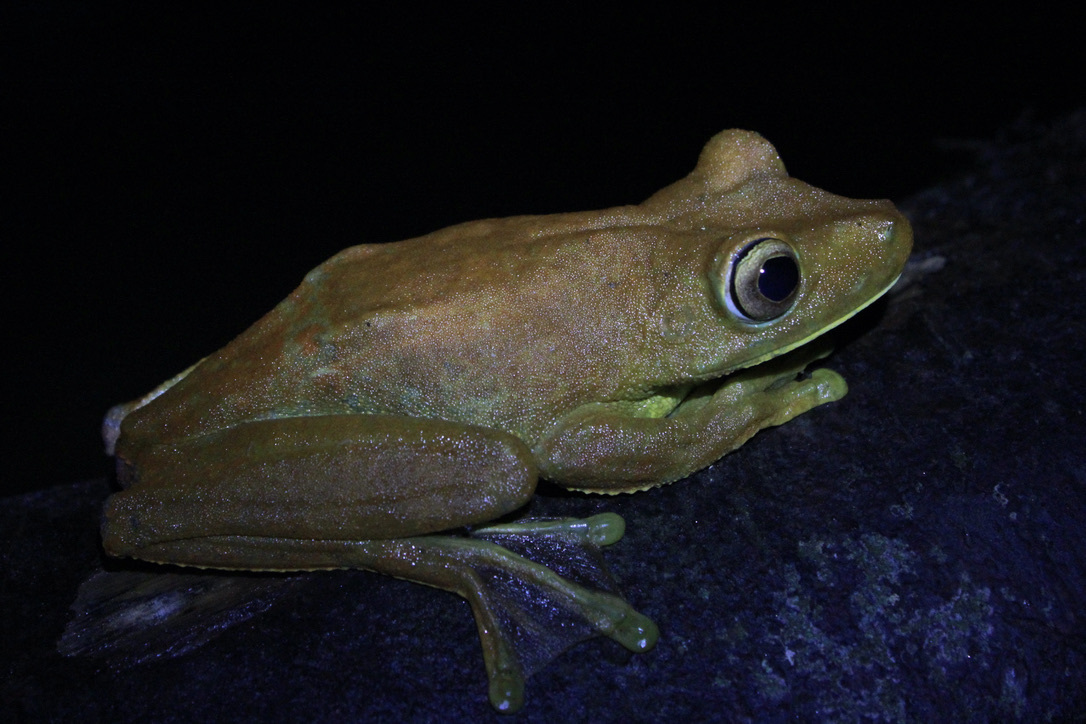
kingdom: Animalia
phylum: Chordata
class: Amphibia
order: Anura
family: Hylidae
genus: Boana
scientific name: Boana boans
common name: Giant gladiator treefrog
